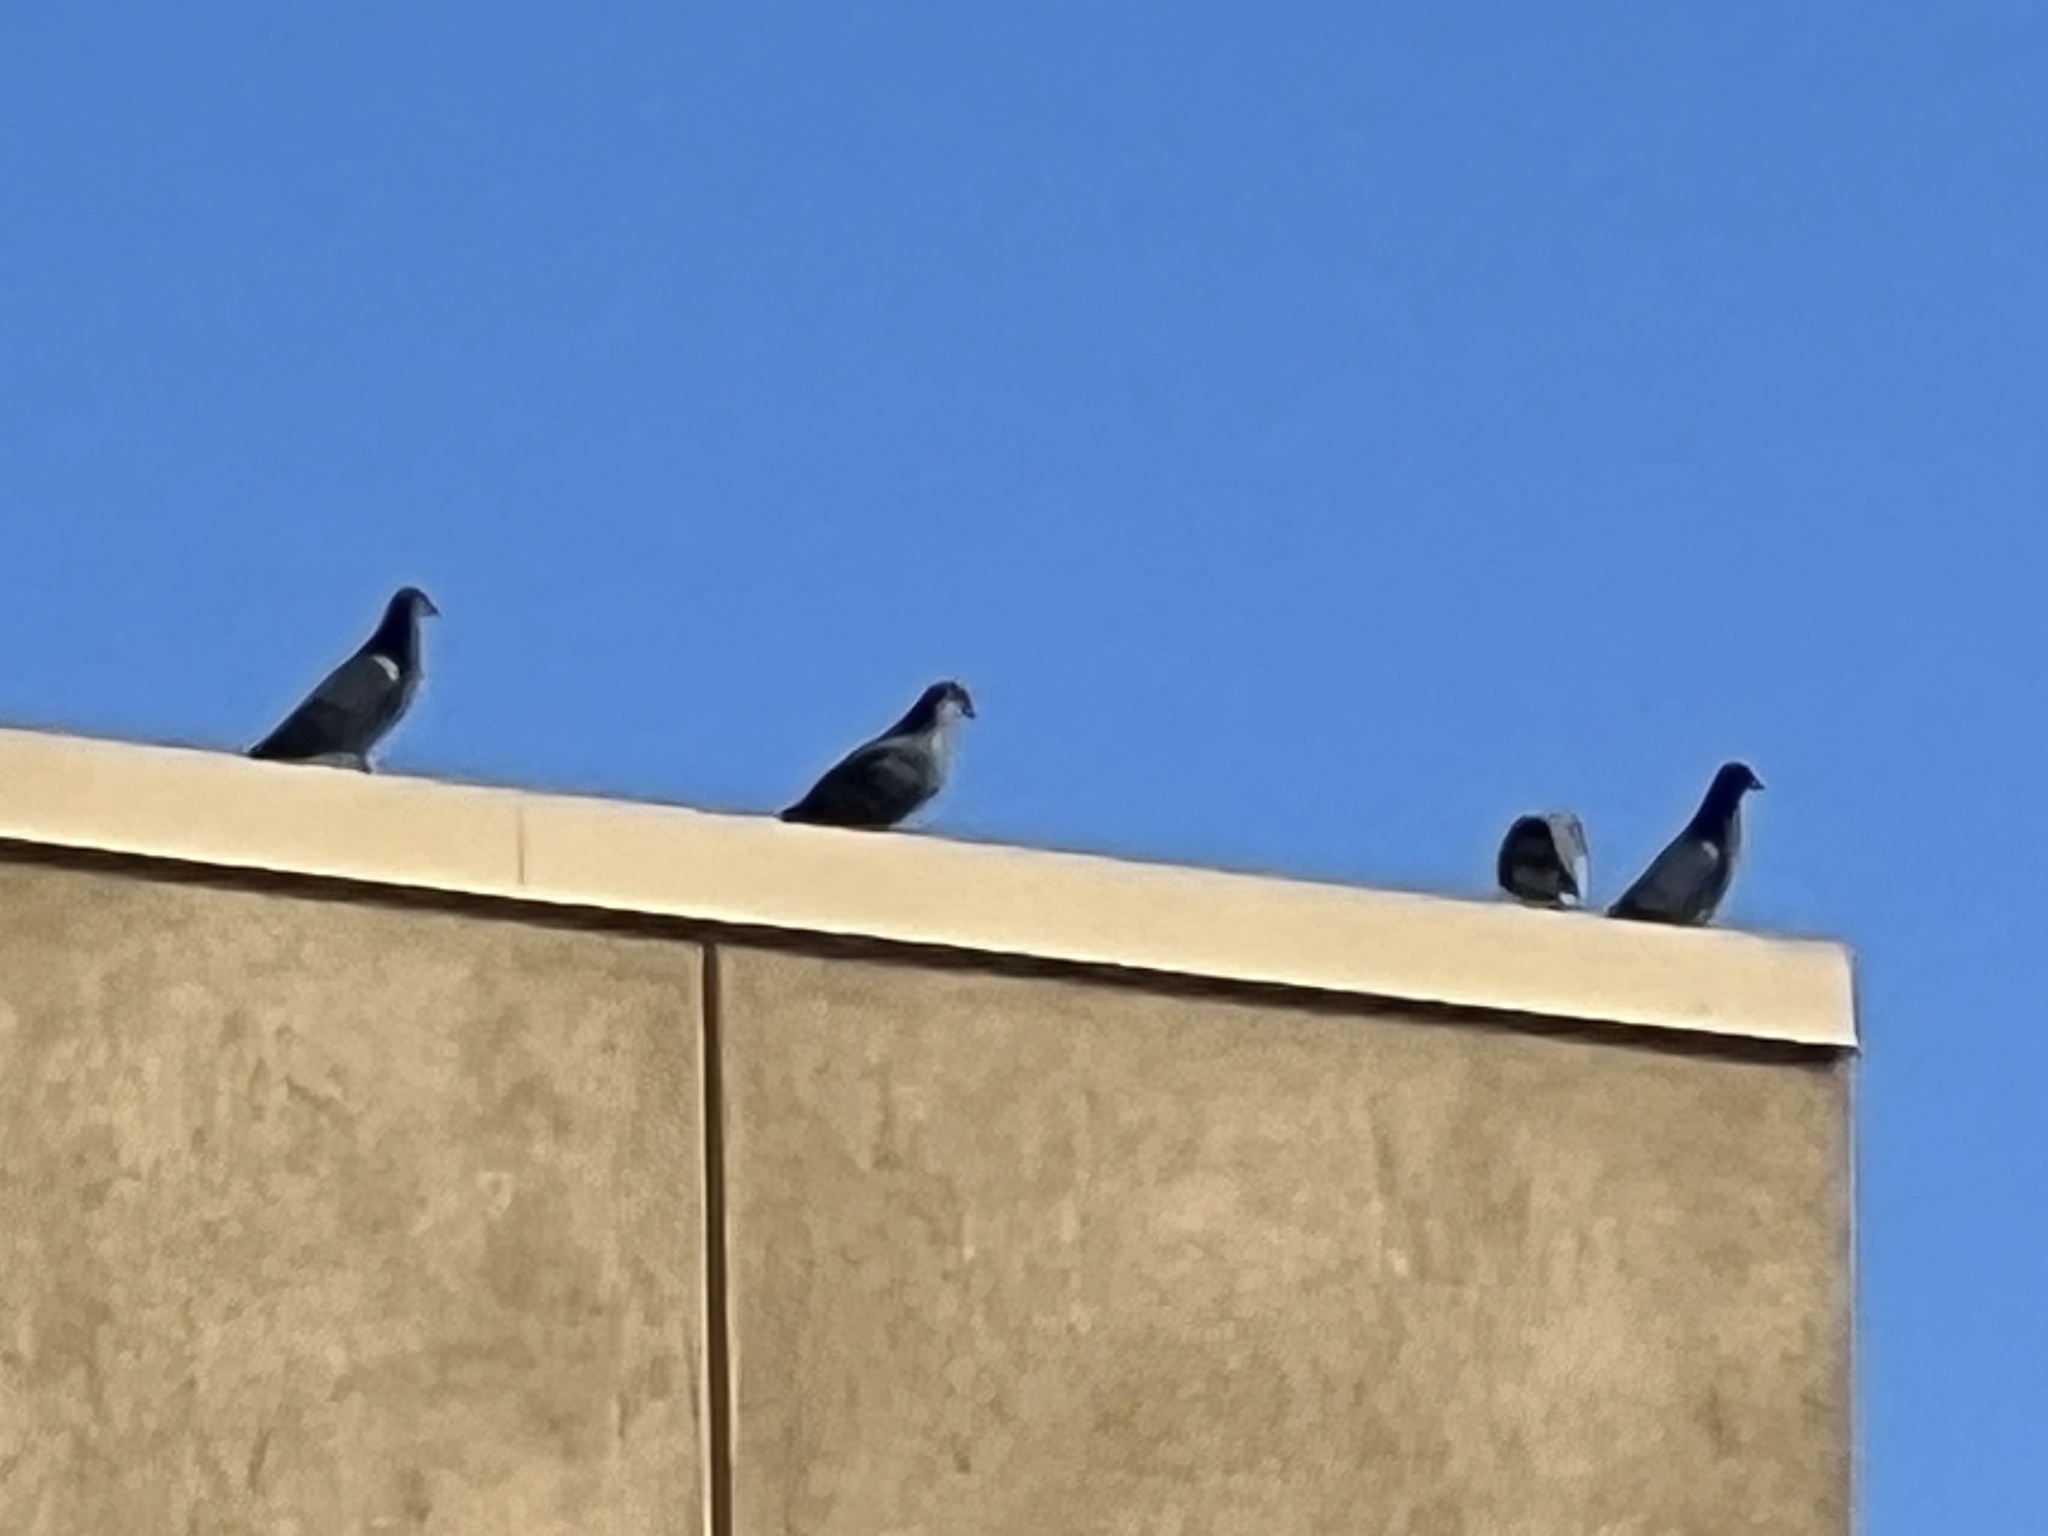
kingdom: Animalia
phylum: Chordata
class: Aves
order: Columbiformes
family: Columbidae
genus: Columba
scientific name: Columba livia
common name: Rock pigeon
